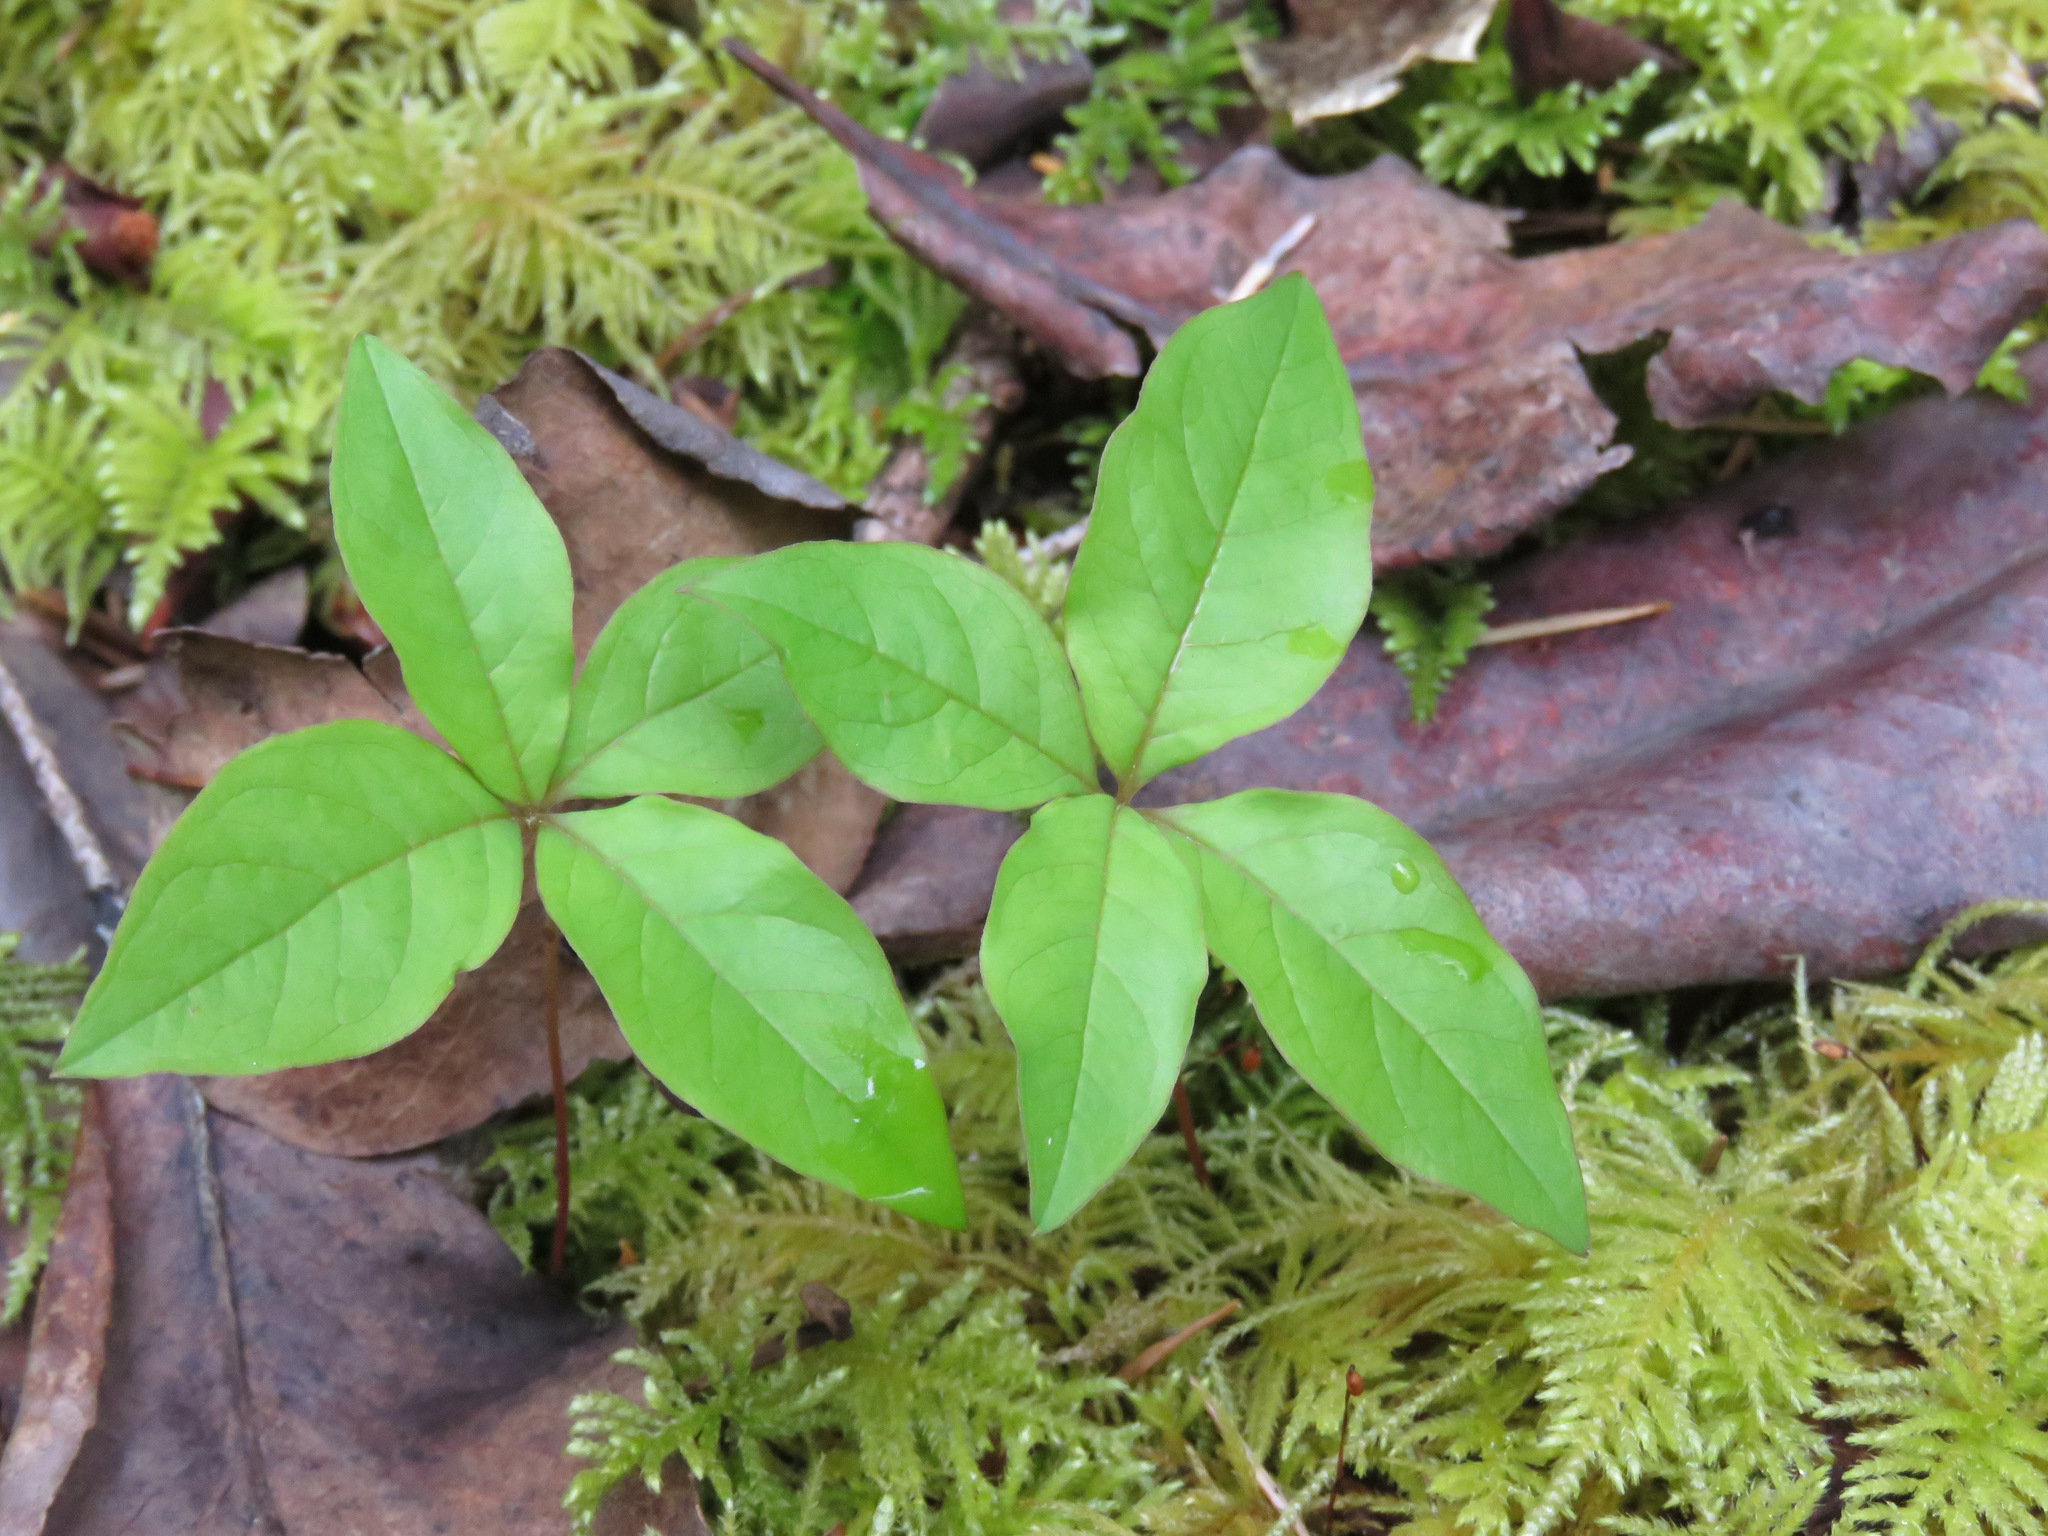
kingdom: Plantae
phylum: Tracheophyta
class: Magnoliopsida
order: Ericales
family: Primulaceae
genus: Lysimachia
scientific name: Lysimachia latifolia
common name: Pacific starflower
